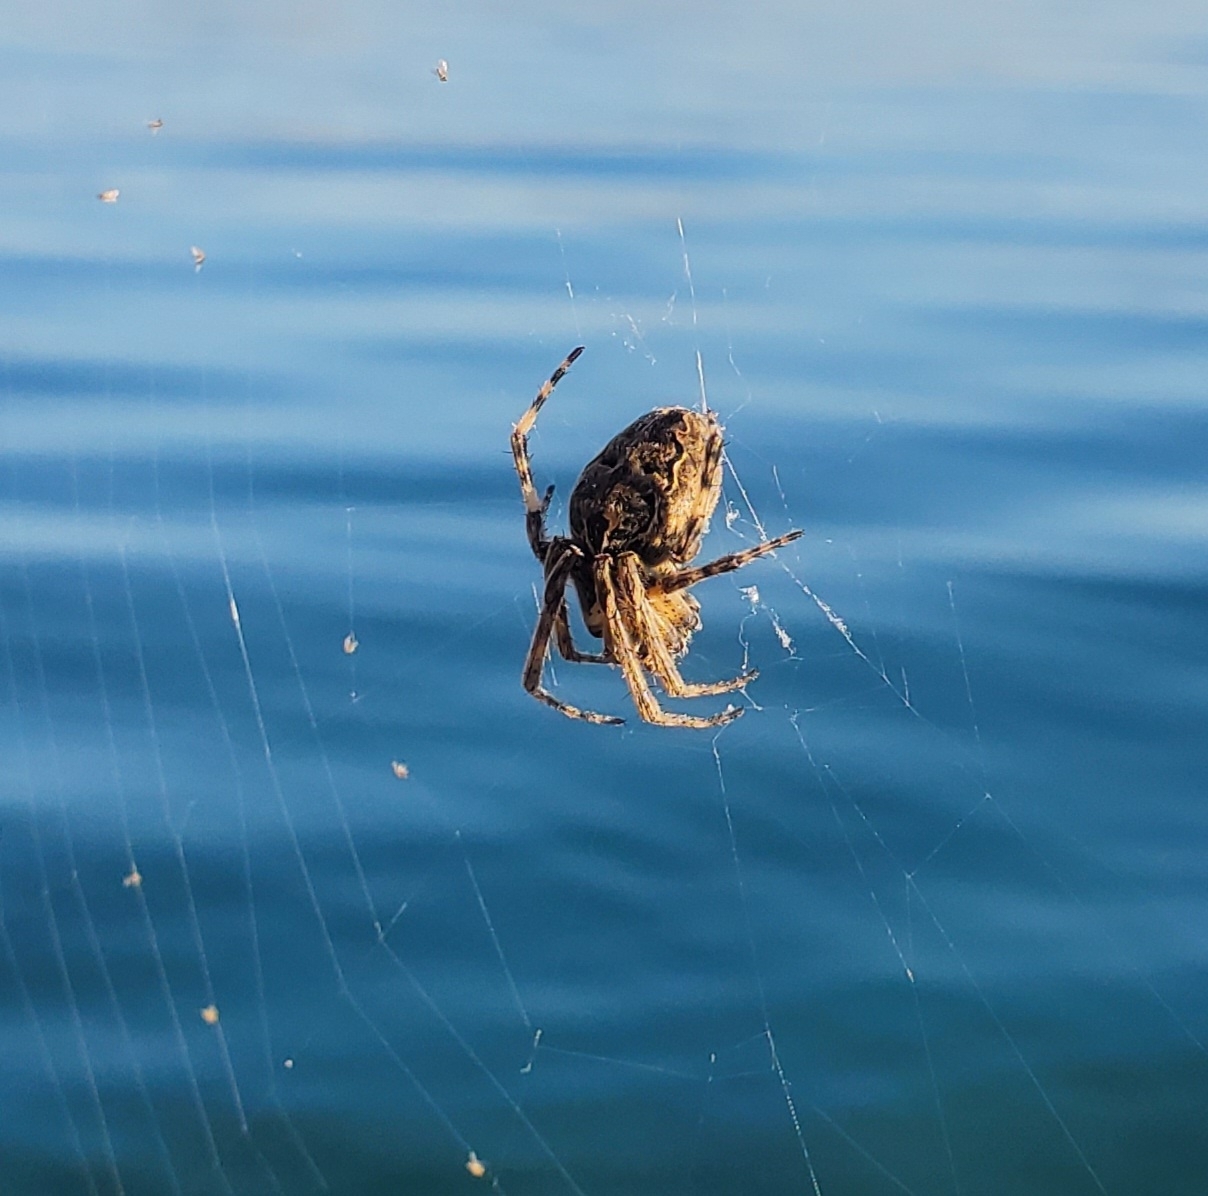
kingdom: Animalia
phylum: Arthropoda
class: Arachnida
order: Araneae
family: Araneidae
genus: Larinioides
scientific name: Larinioides sclopetarius
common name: Bridge orbweaver
